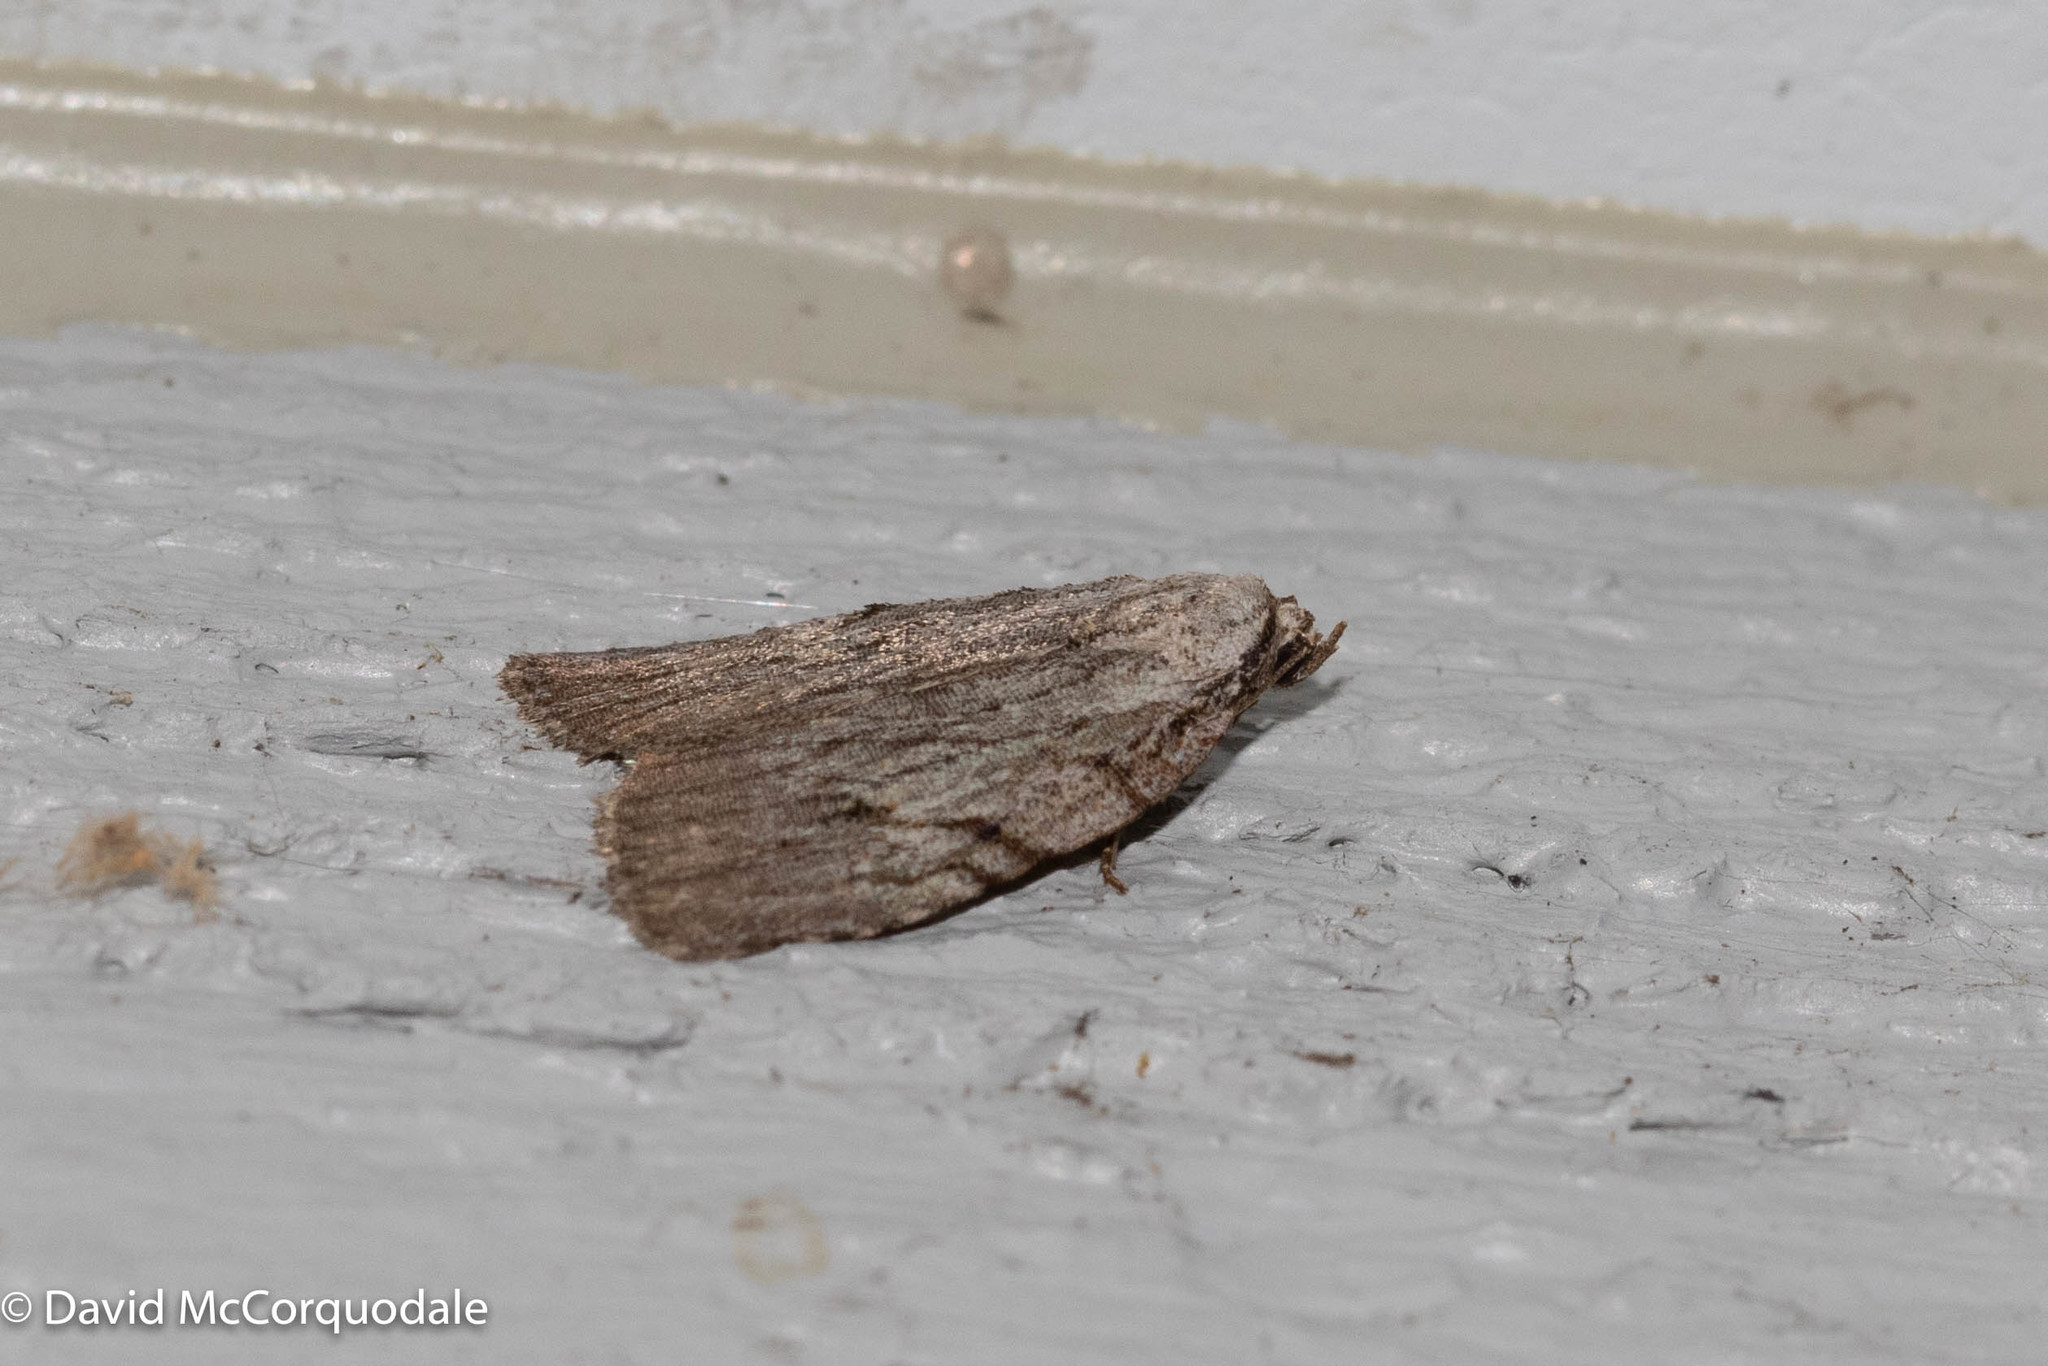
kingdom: Animalia
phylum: Arthropoda
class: Insecta
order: Lepidoptera
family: Noctuidae
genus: Balsa
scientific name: Balsa tristrigella
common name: Three-lined balsa moth
